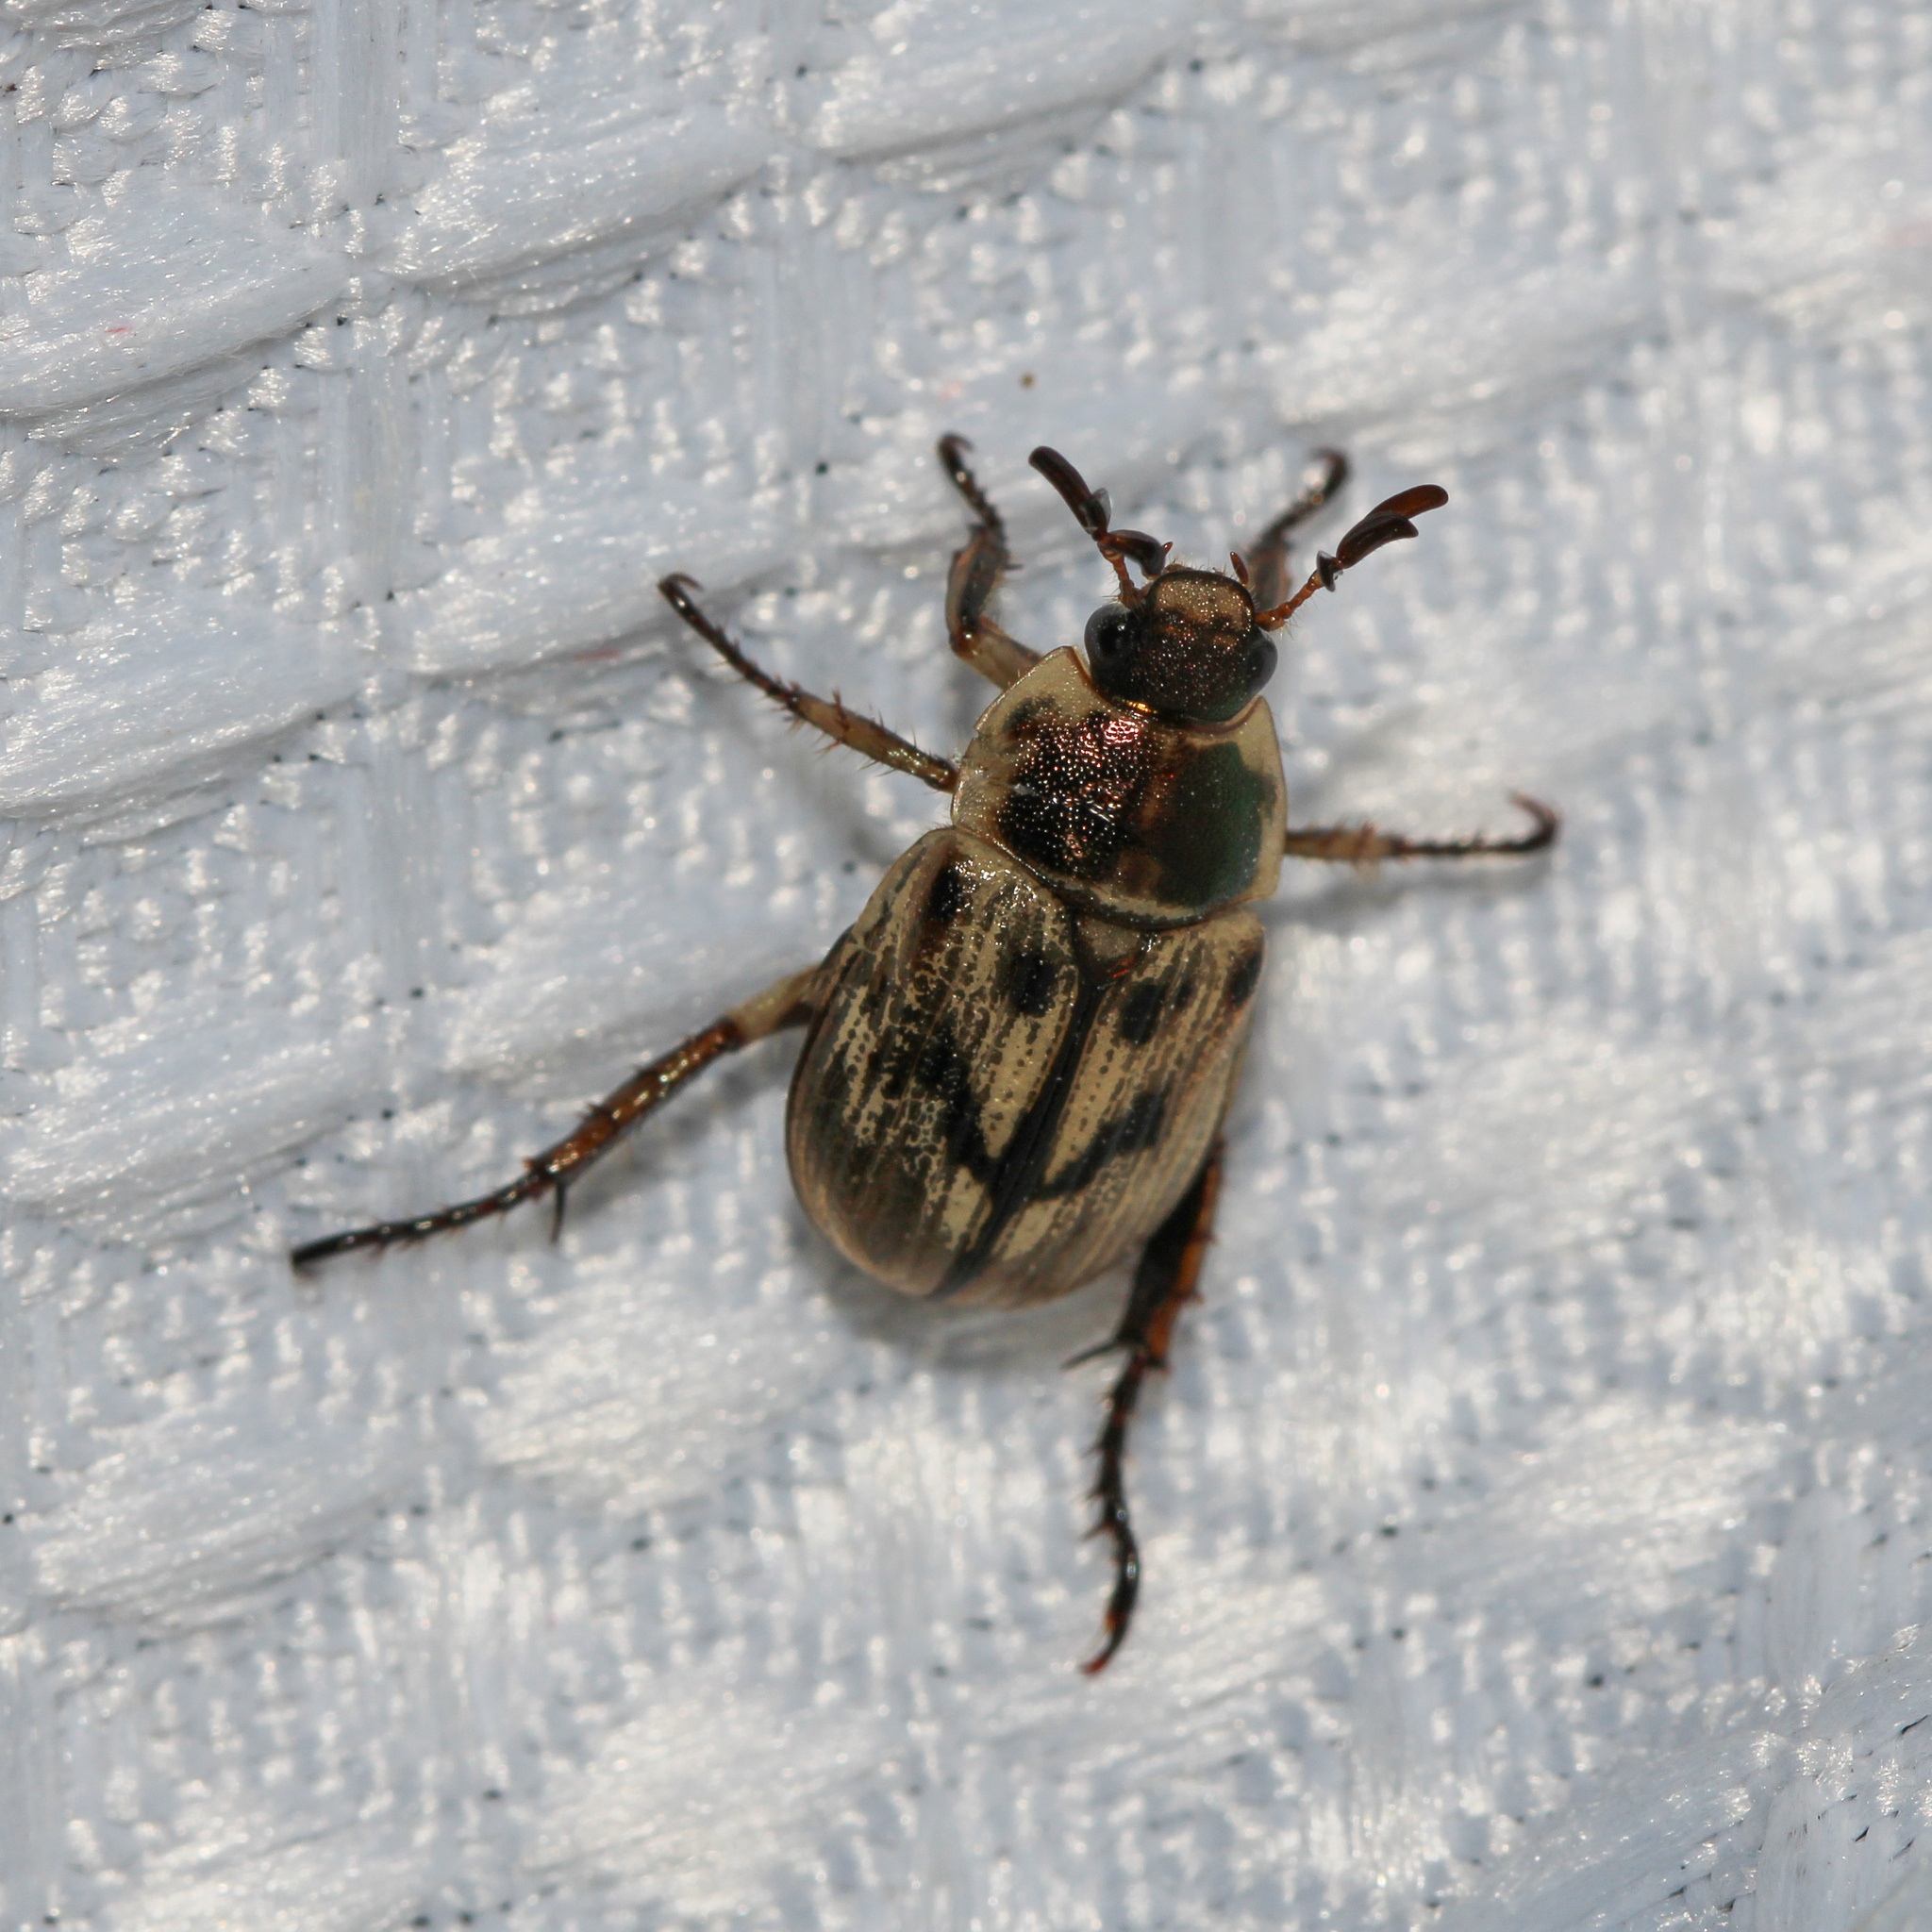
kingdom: Animalia
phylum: Arthropoda
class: Insecta
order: Coleoptera
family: Scarabaeidae
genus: Exomala
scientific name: Exomala orientalis
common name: Oriental beetle
